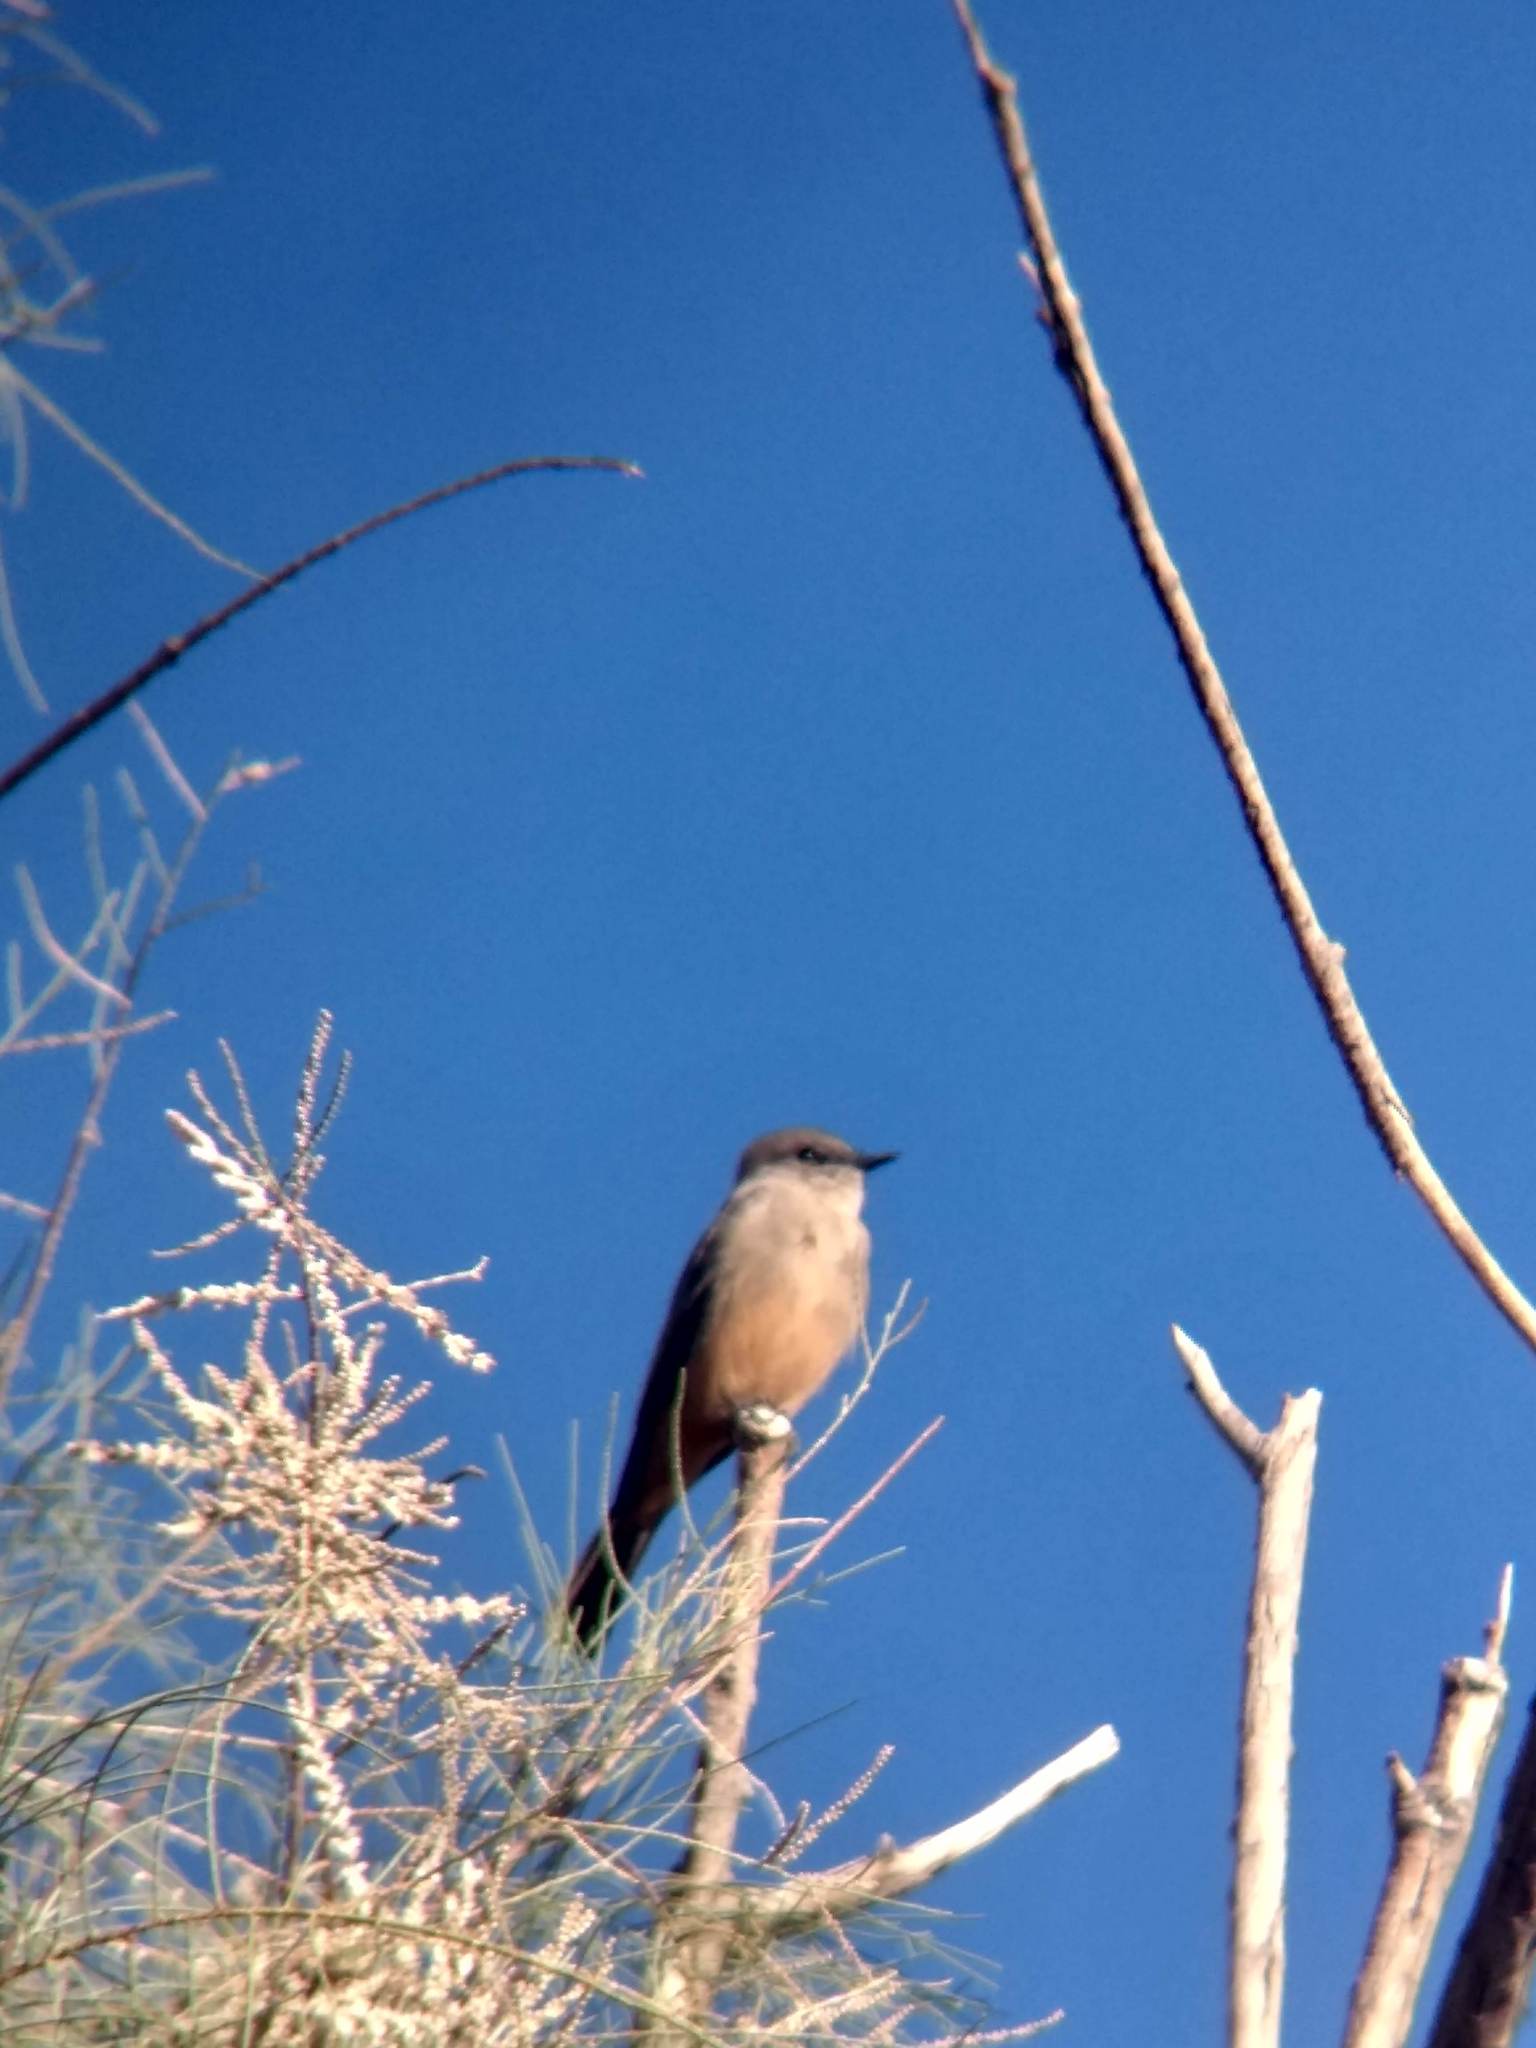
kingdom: Animalia
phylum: Chordata
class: Aves
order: Passeriformes
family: Tyrannidae
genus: Sayornis
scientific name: Sayornis saya
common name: Say's phoebe
